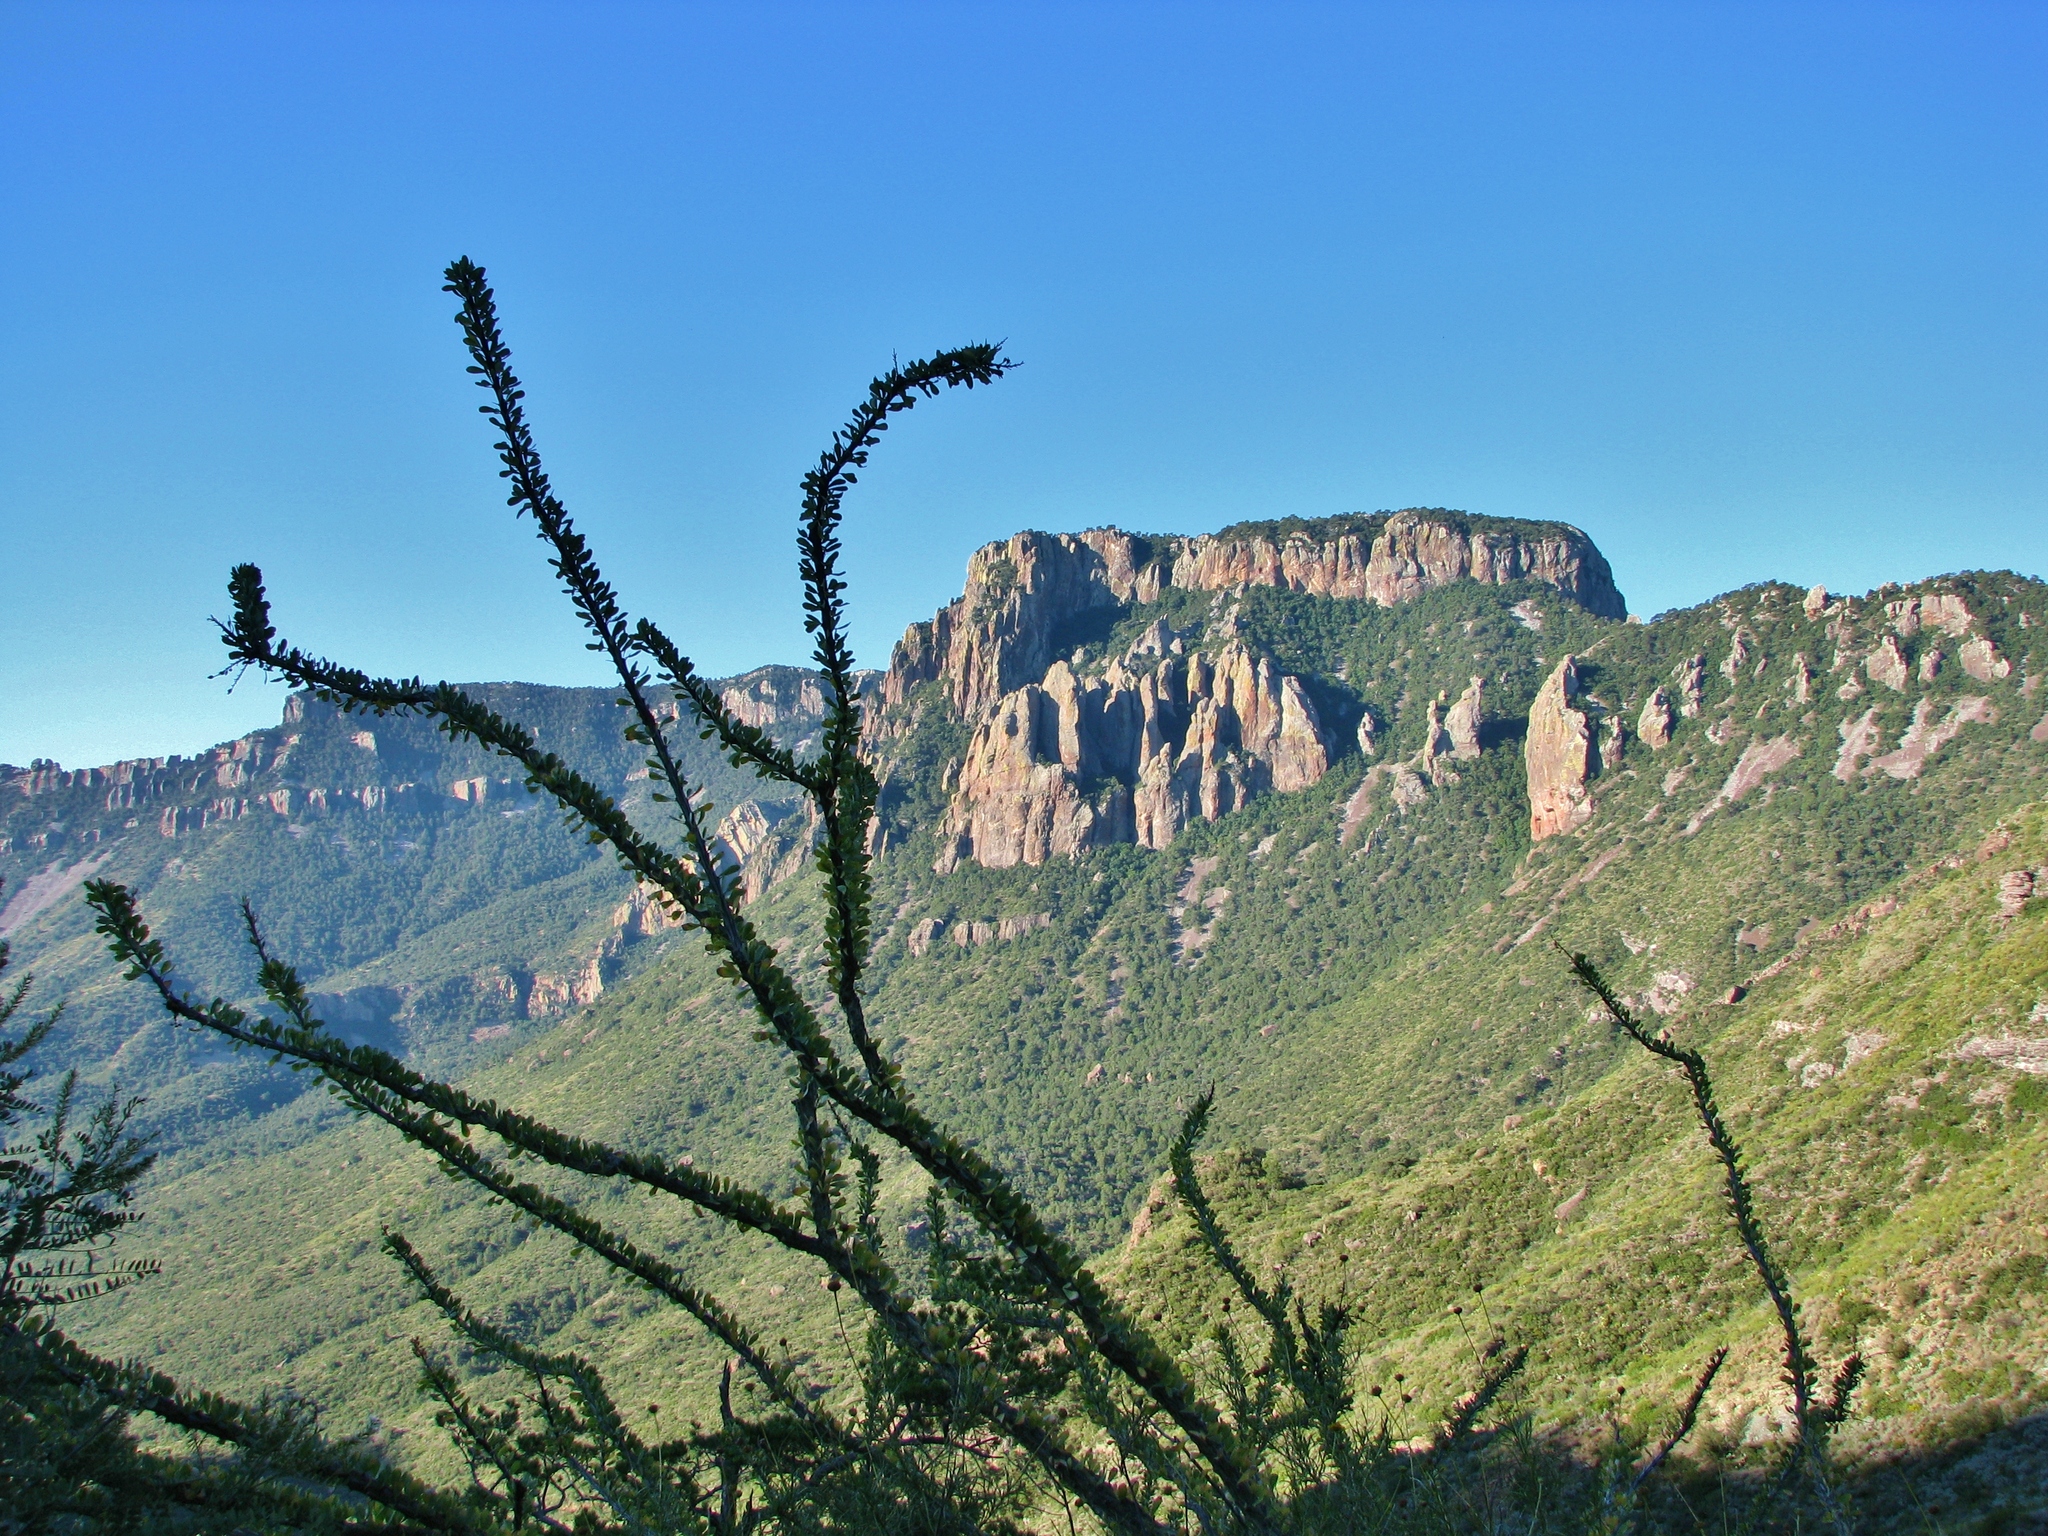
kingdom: Plantae
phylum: Tracheophyta
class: Magnoliopsida
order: Ericales
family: Fouquieriaceae
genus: Fouquieria
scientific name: Fouquieria splendens
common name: Vine-cactus
